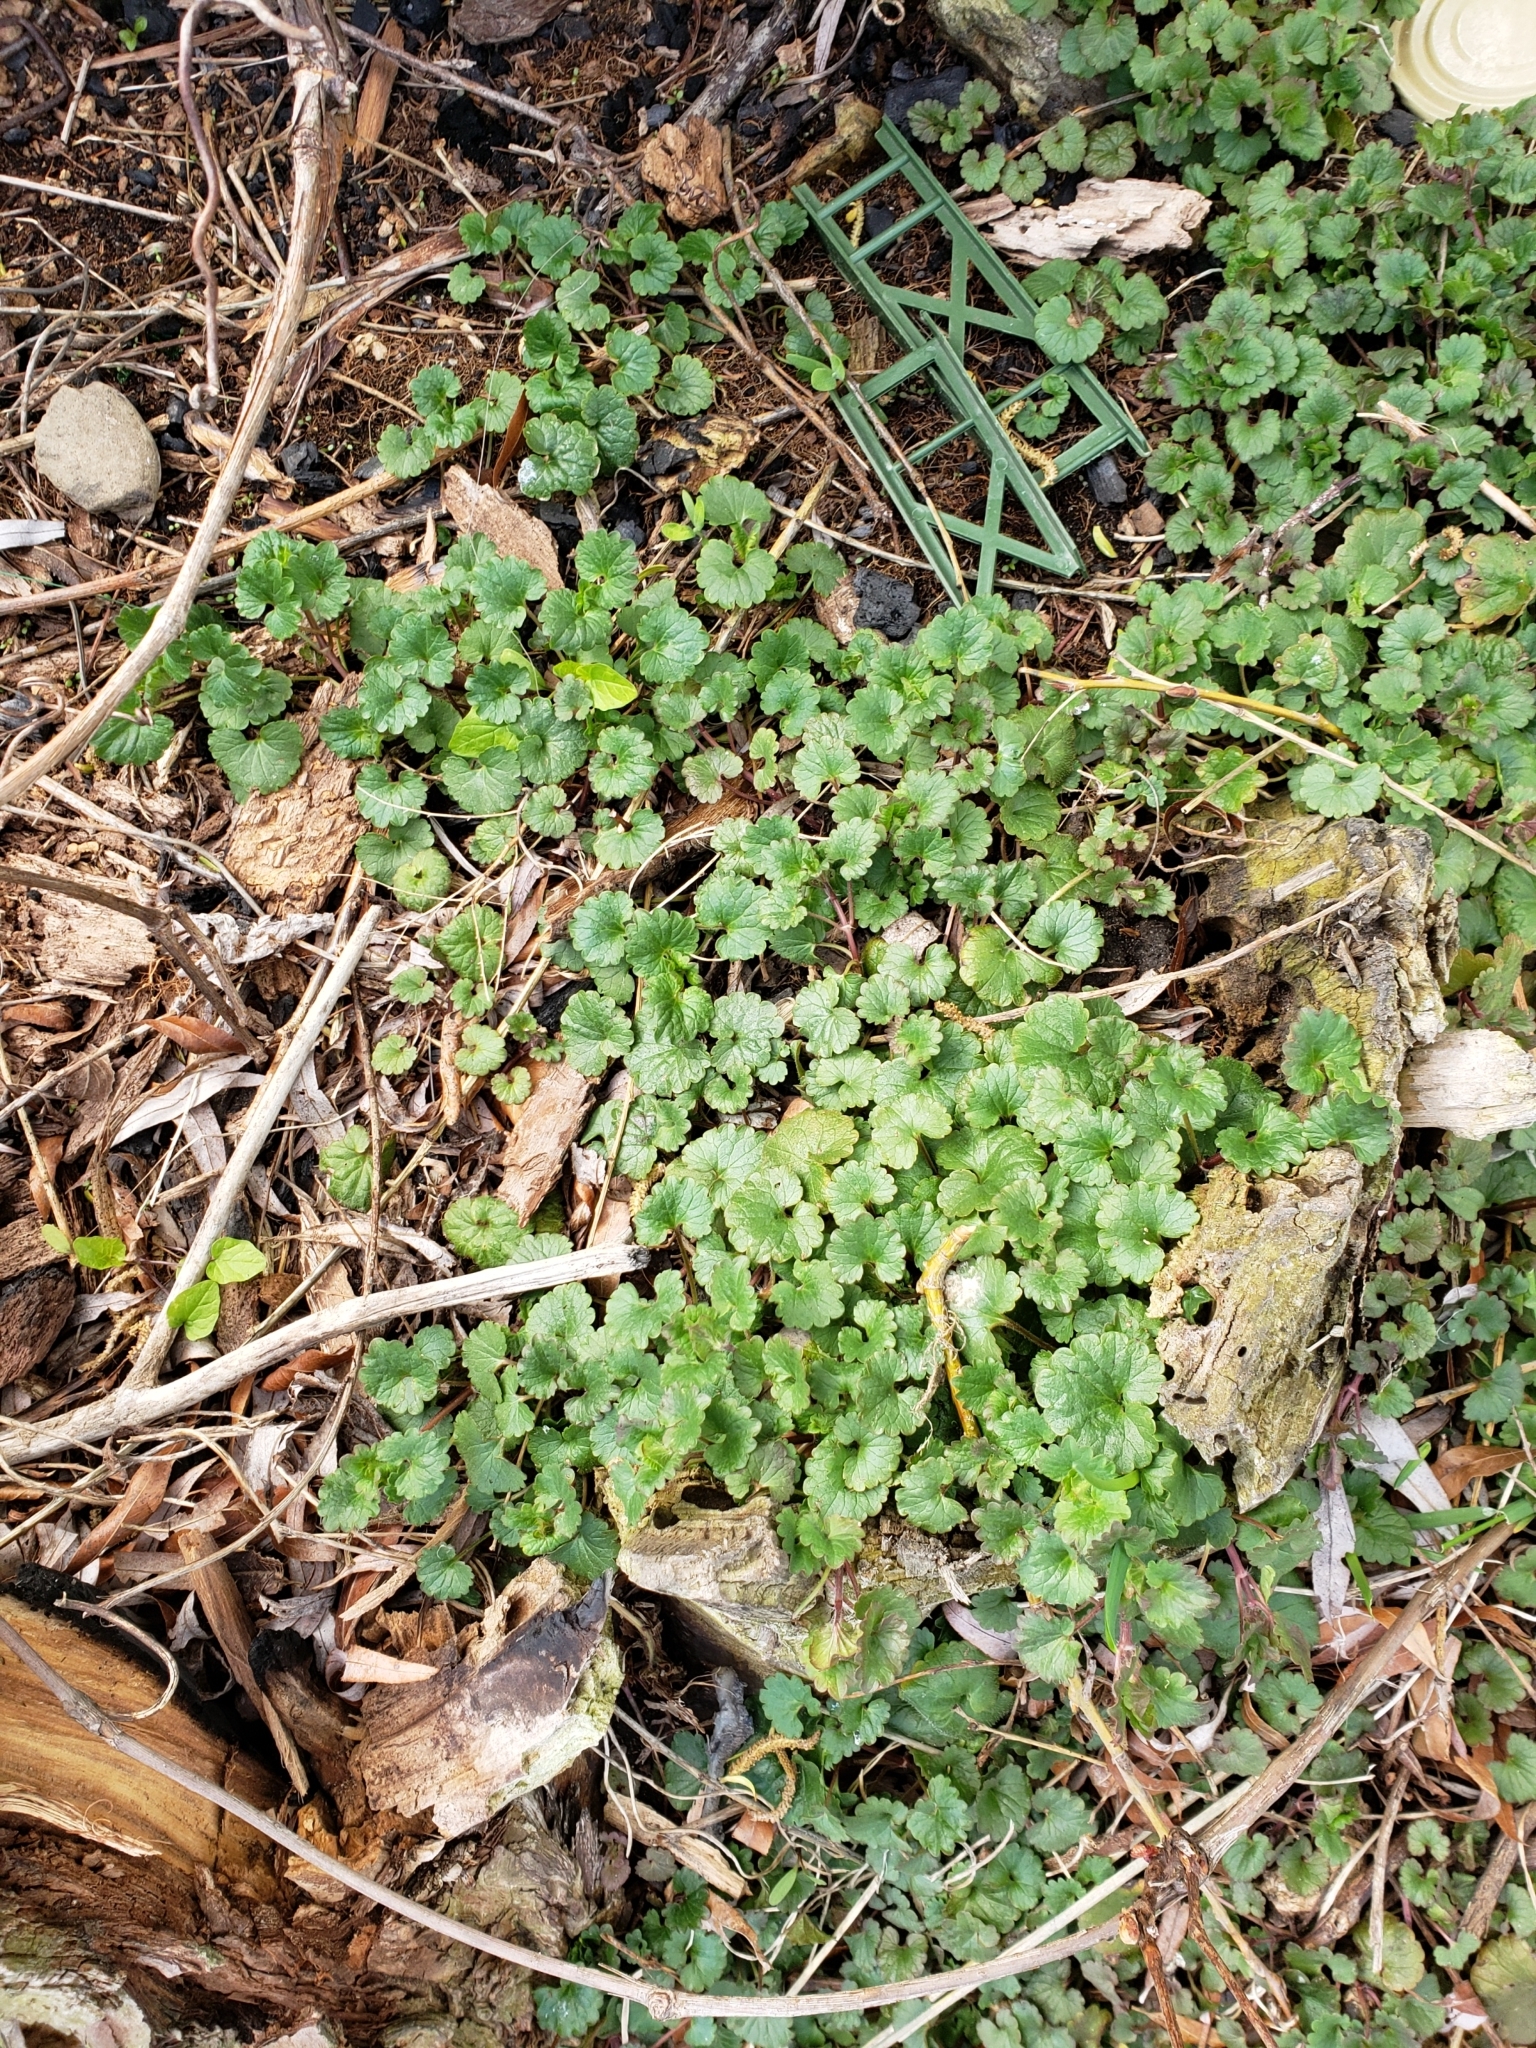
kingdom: Plantae
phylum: Tracheophyta
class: Magnoliopsida
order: Lamiales
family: Lamiaceae
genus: Glechoma
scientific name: Glechoma hederacea
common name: Ground ivy
